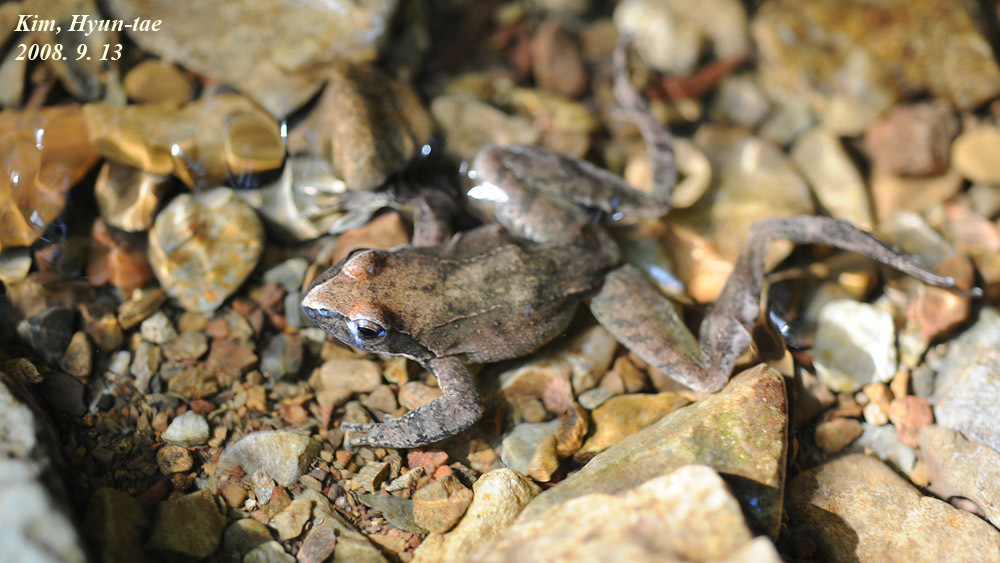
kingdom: Animalia
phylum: Chordata
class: Amphibia
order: Anura
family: Ranidae
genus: Rana
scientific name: Rana huanrenensis
